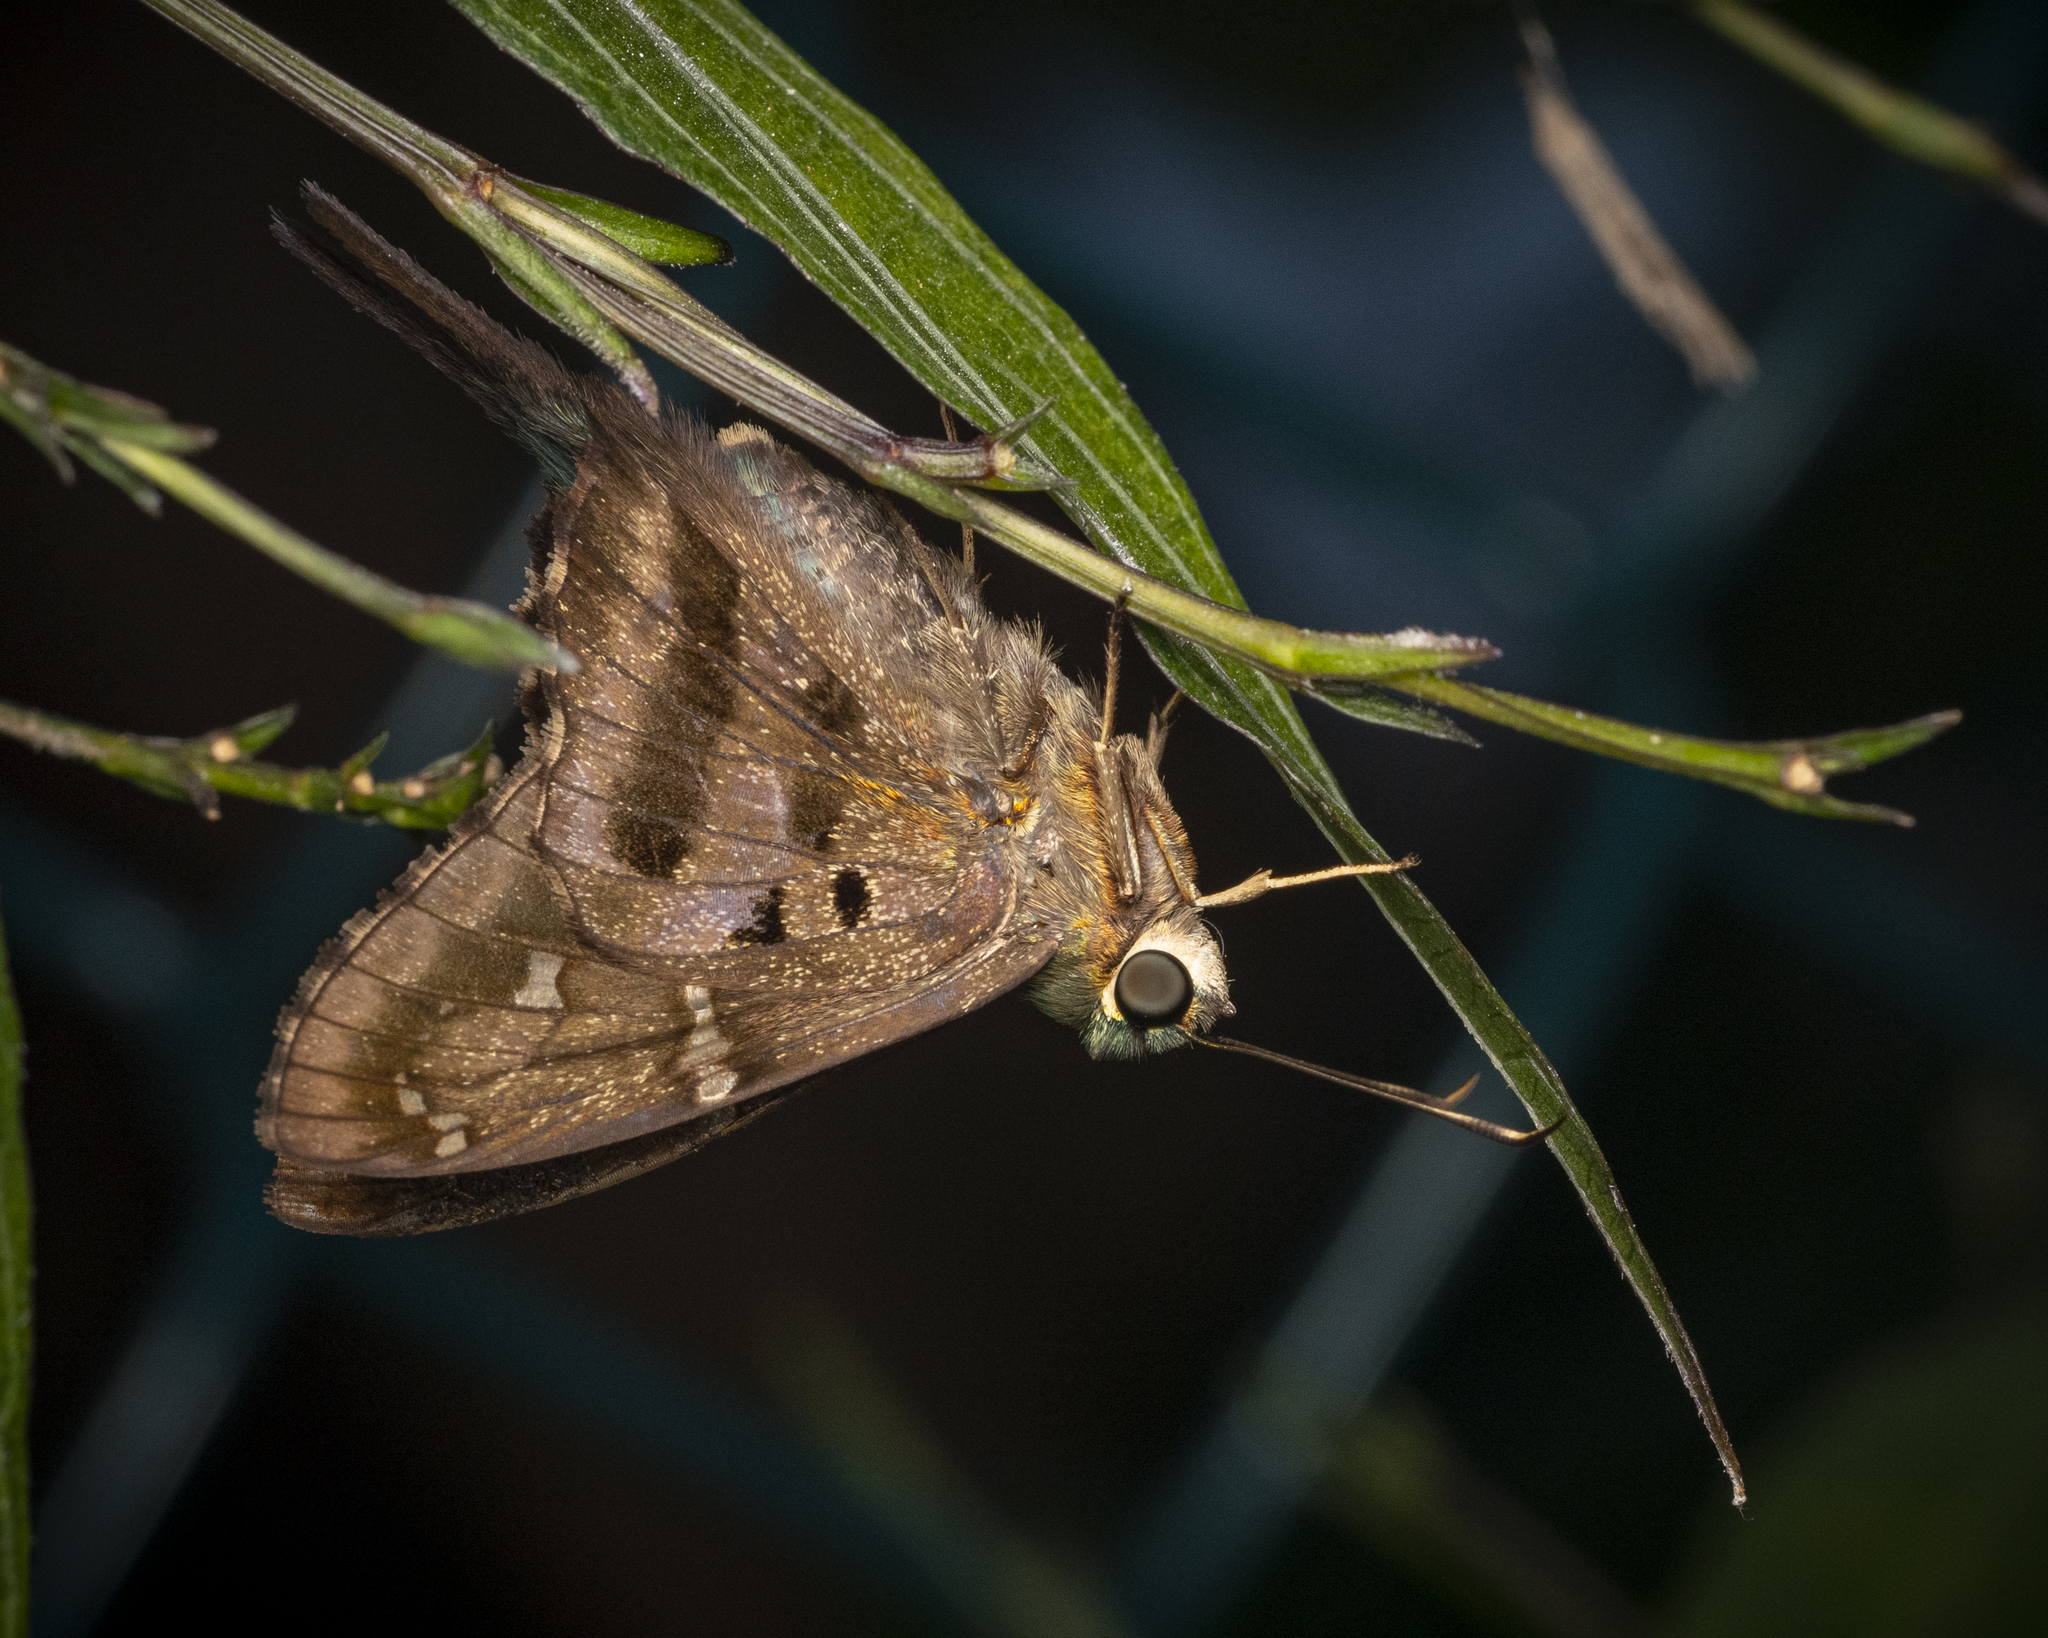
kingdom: Animalia
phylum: Arthropoda
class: Insecta
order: Lepidoptera
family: Hesperiidae
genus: Urbanus
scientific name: Urbanus proteus
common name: Long-tailed skipper
